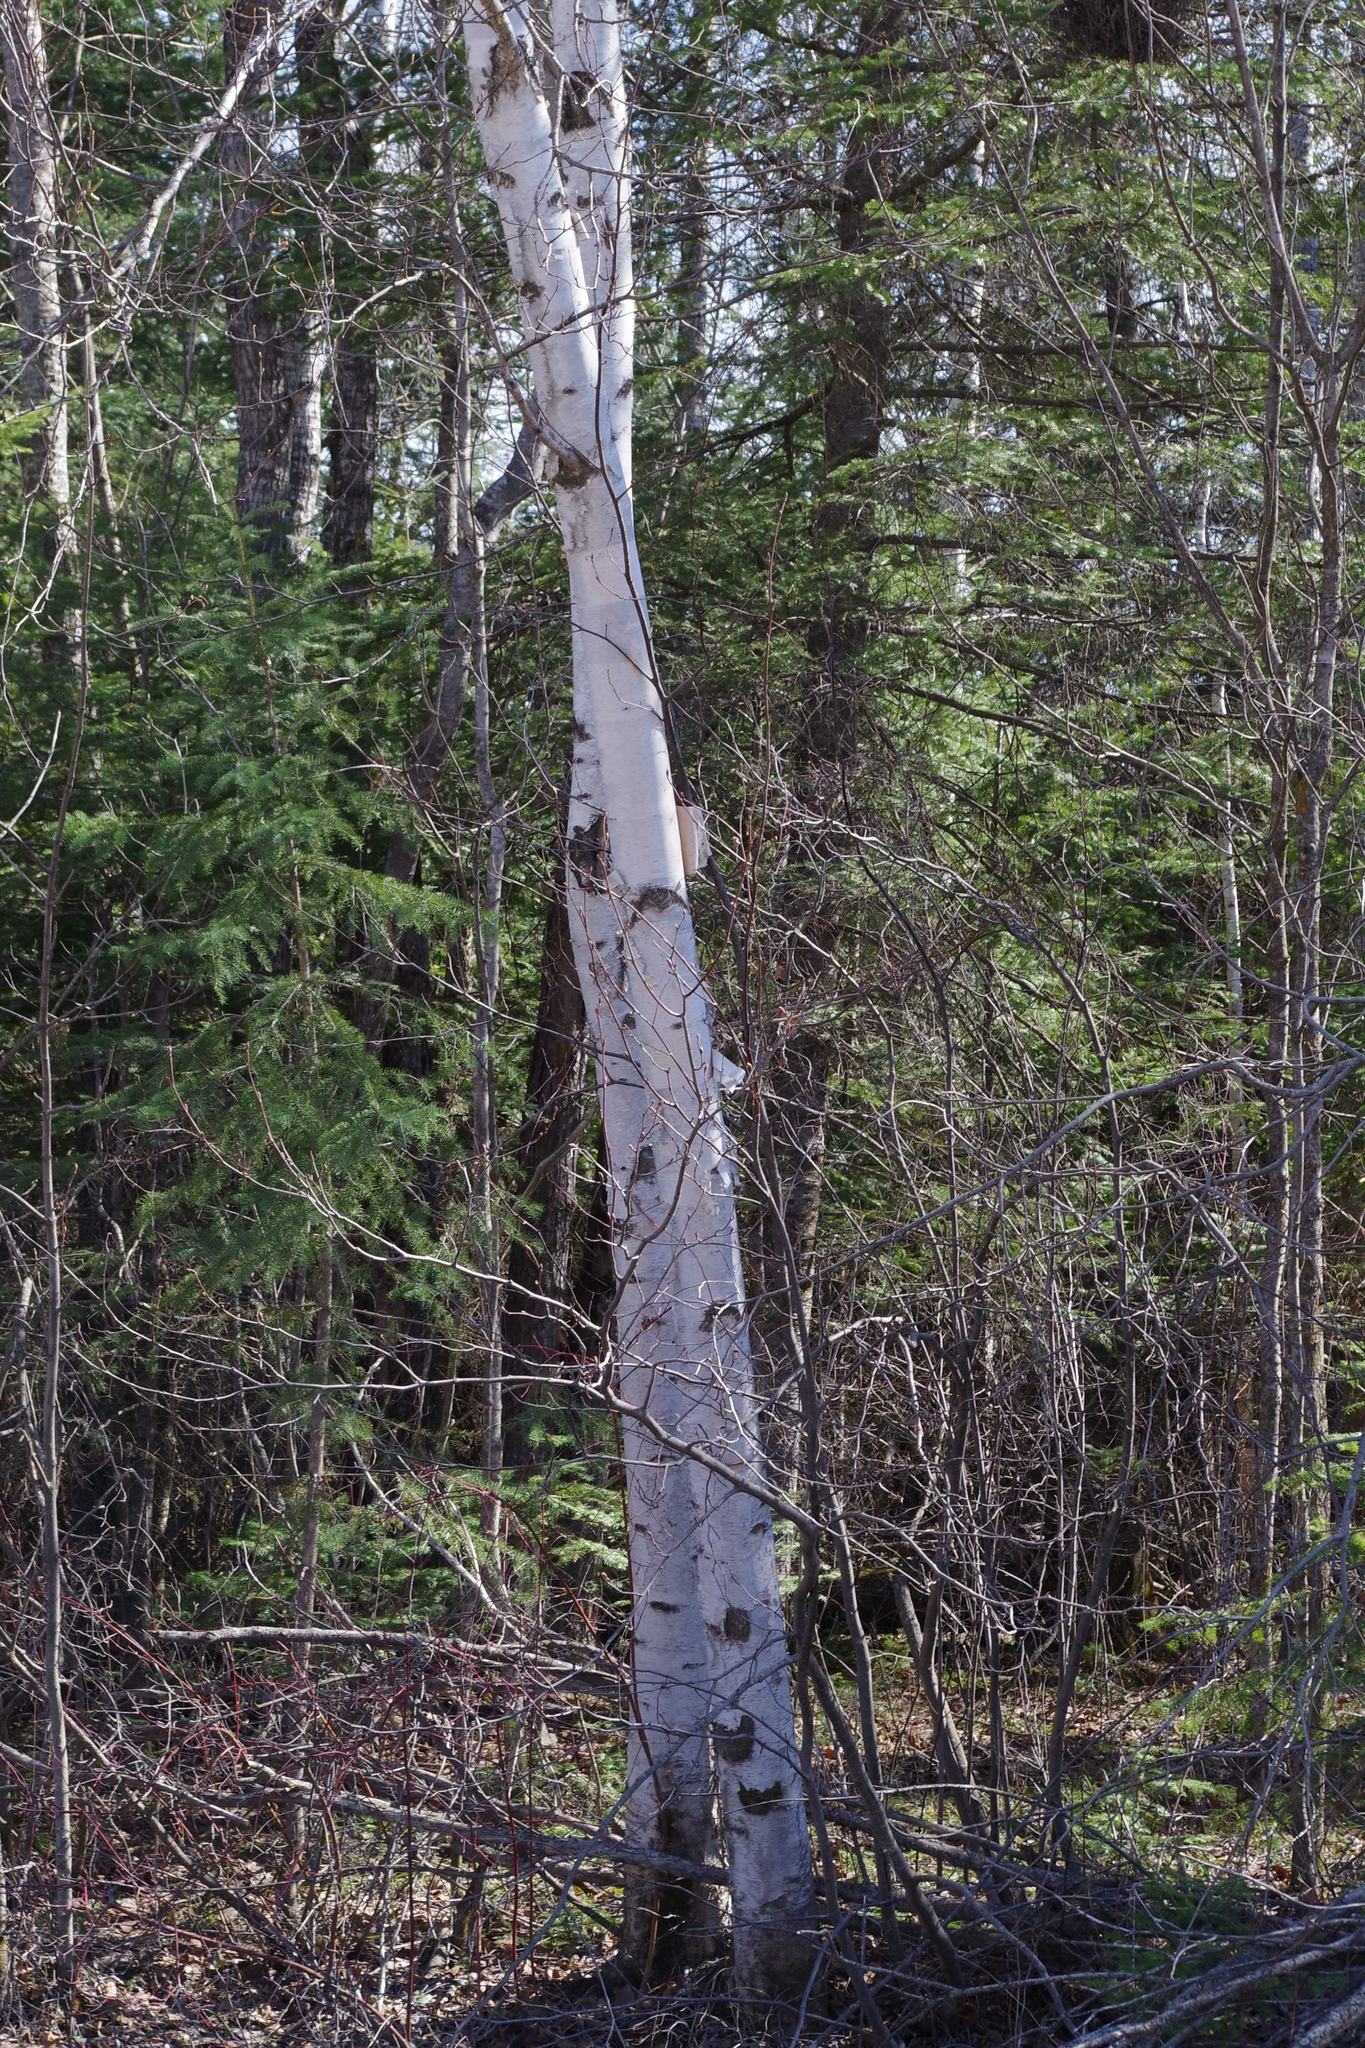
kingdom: Plantae
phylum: Tracheophyta
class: Magnoliopsida
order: Fagales
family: Betulaceae
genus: Betula
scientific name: Betula papyrifera
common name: Paper birch
